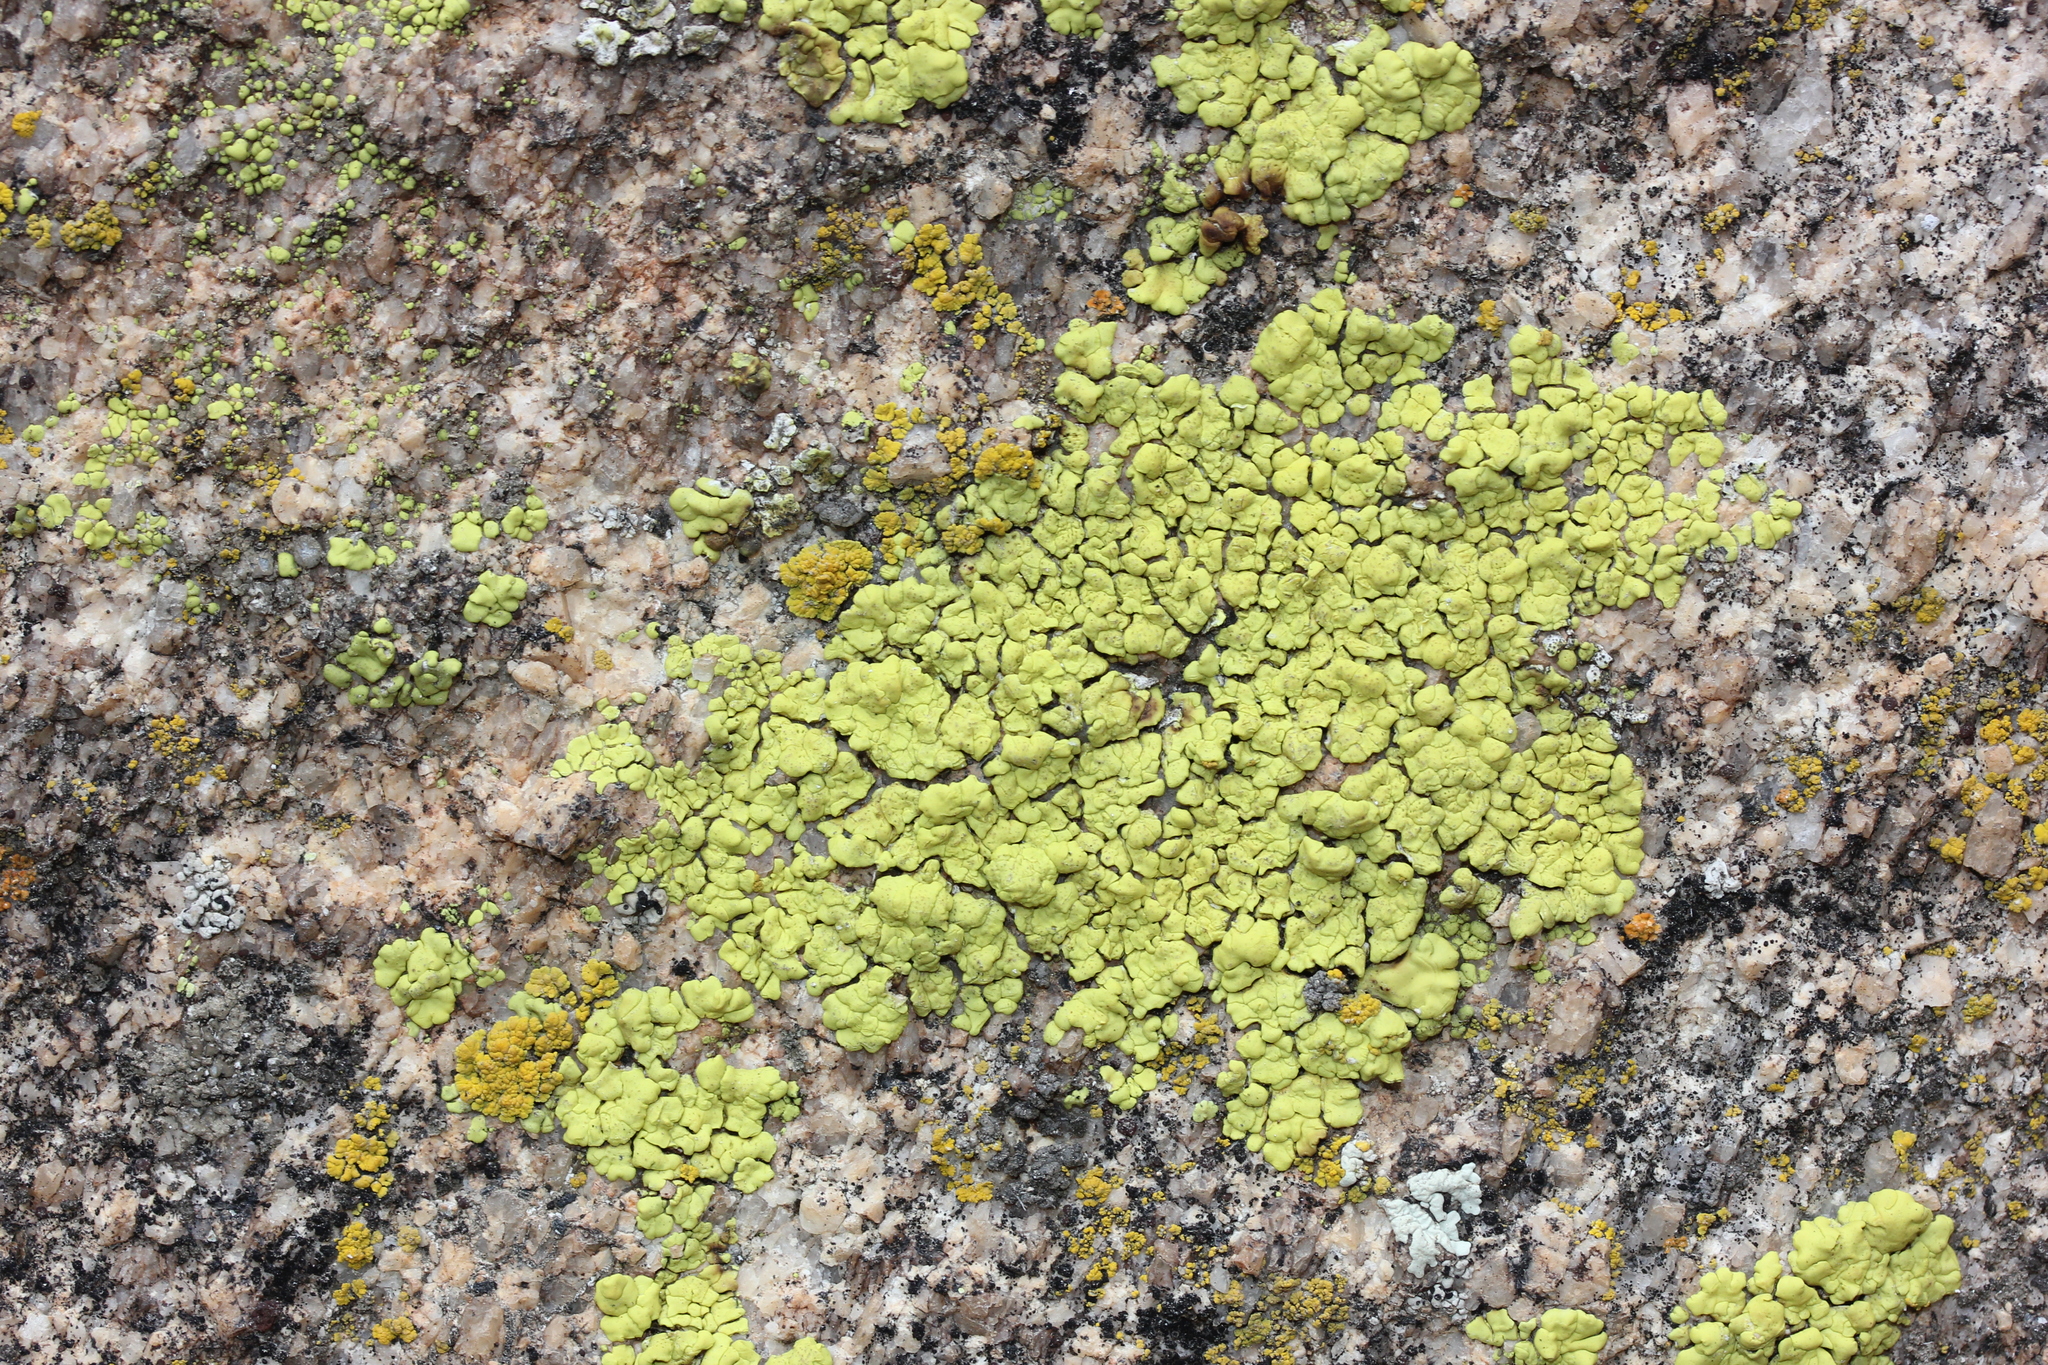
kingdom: Fungi
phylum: Ascomycota
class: Lecanoromycetes
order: Acarosporales
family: Acarosporaceae
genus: Acarospora
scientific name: Acarospora socialis
